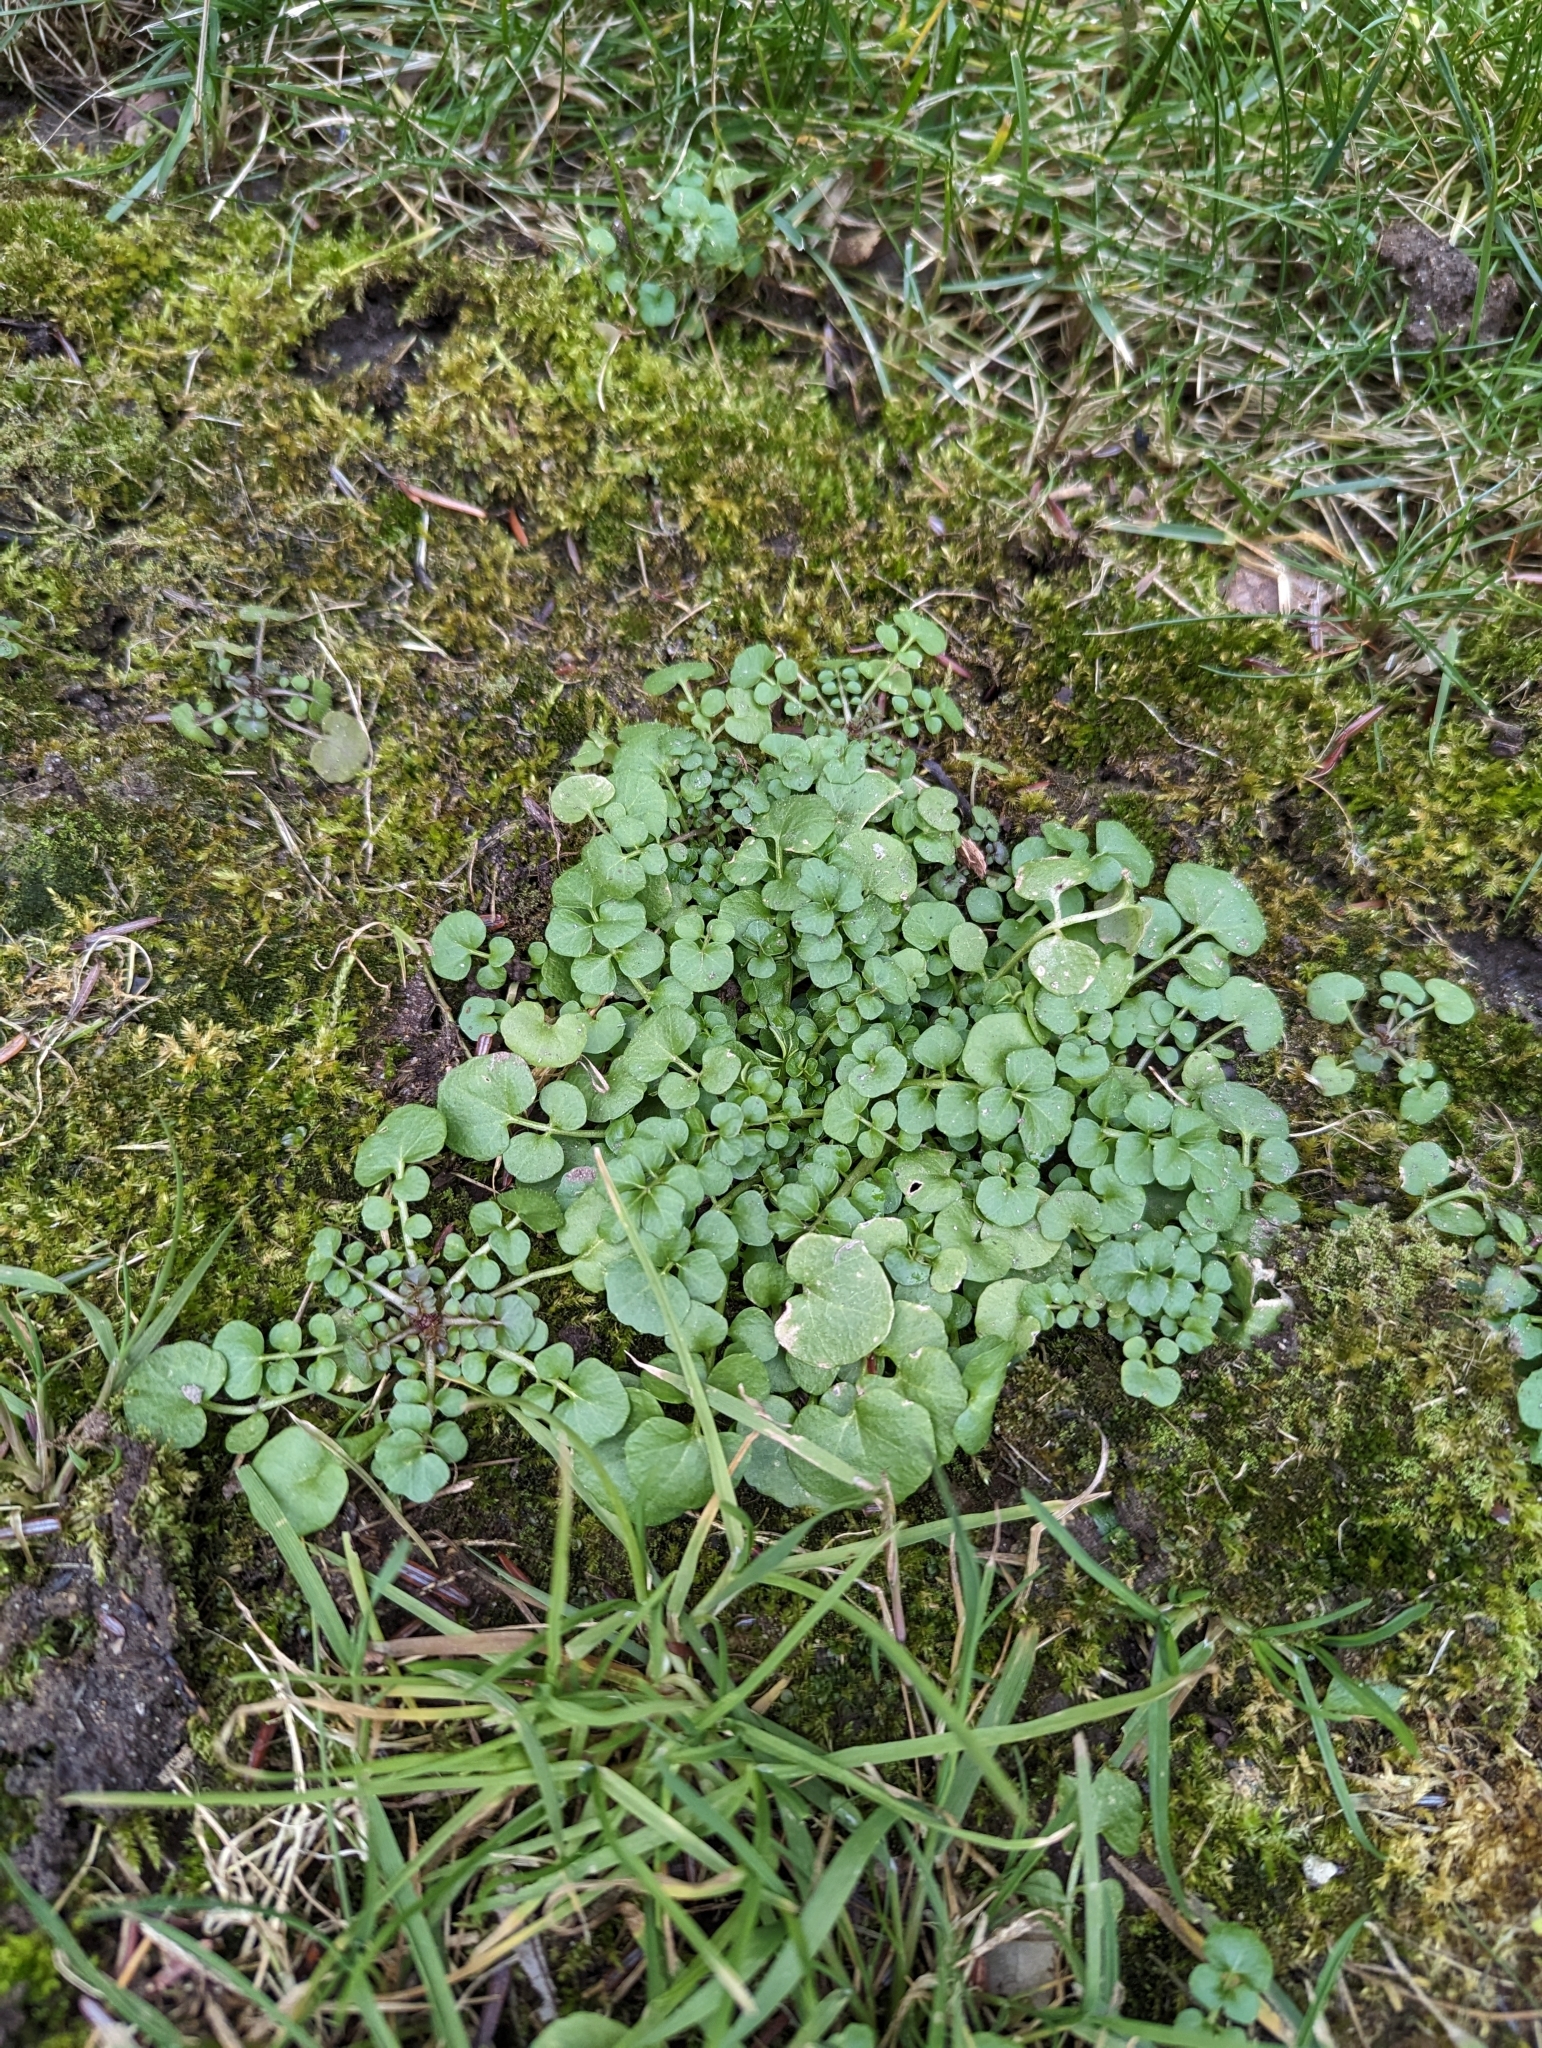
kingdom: Plantae
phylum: Tracheophyta
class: Magnoliopsida
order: Brassicales
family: Brassicaceae
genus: Cardamine
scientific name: Cardamine hirsuta
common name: Hairy bittercress
